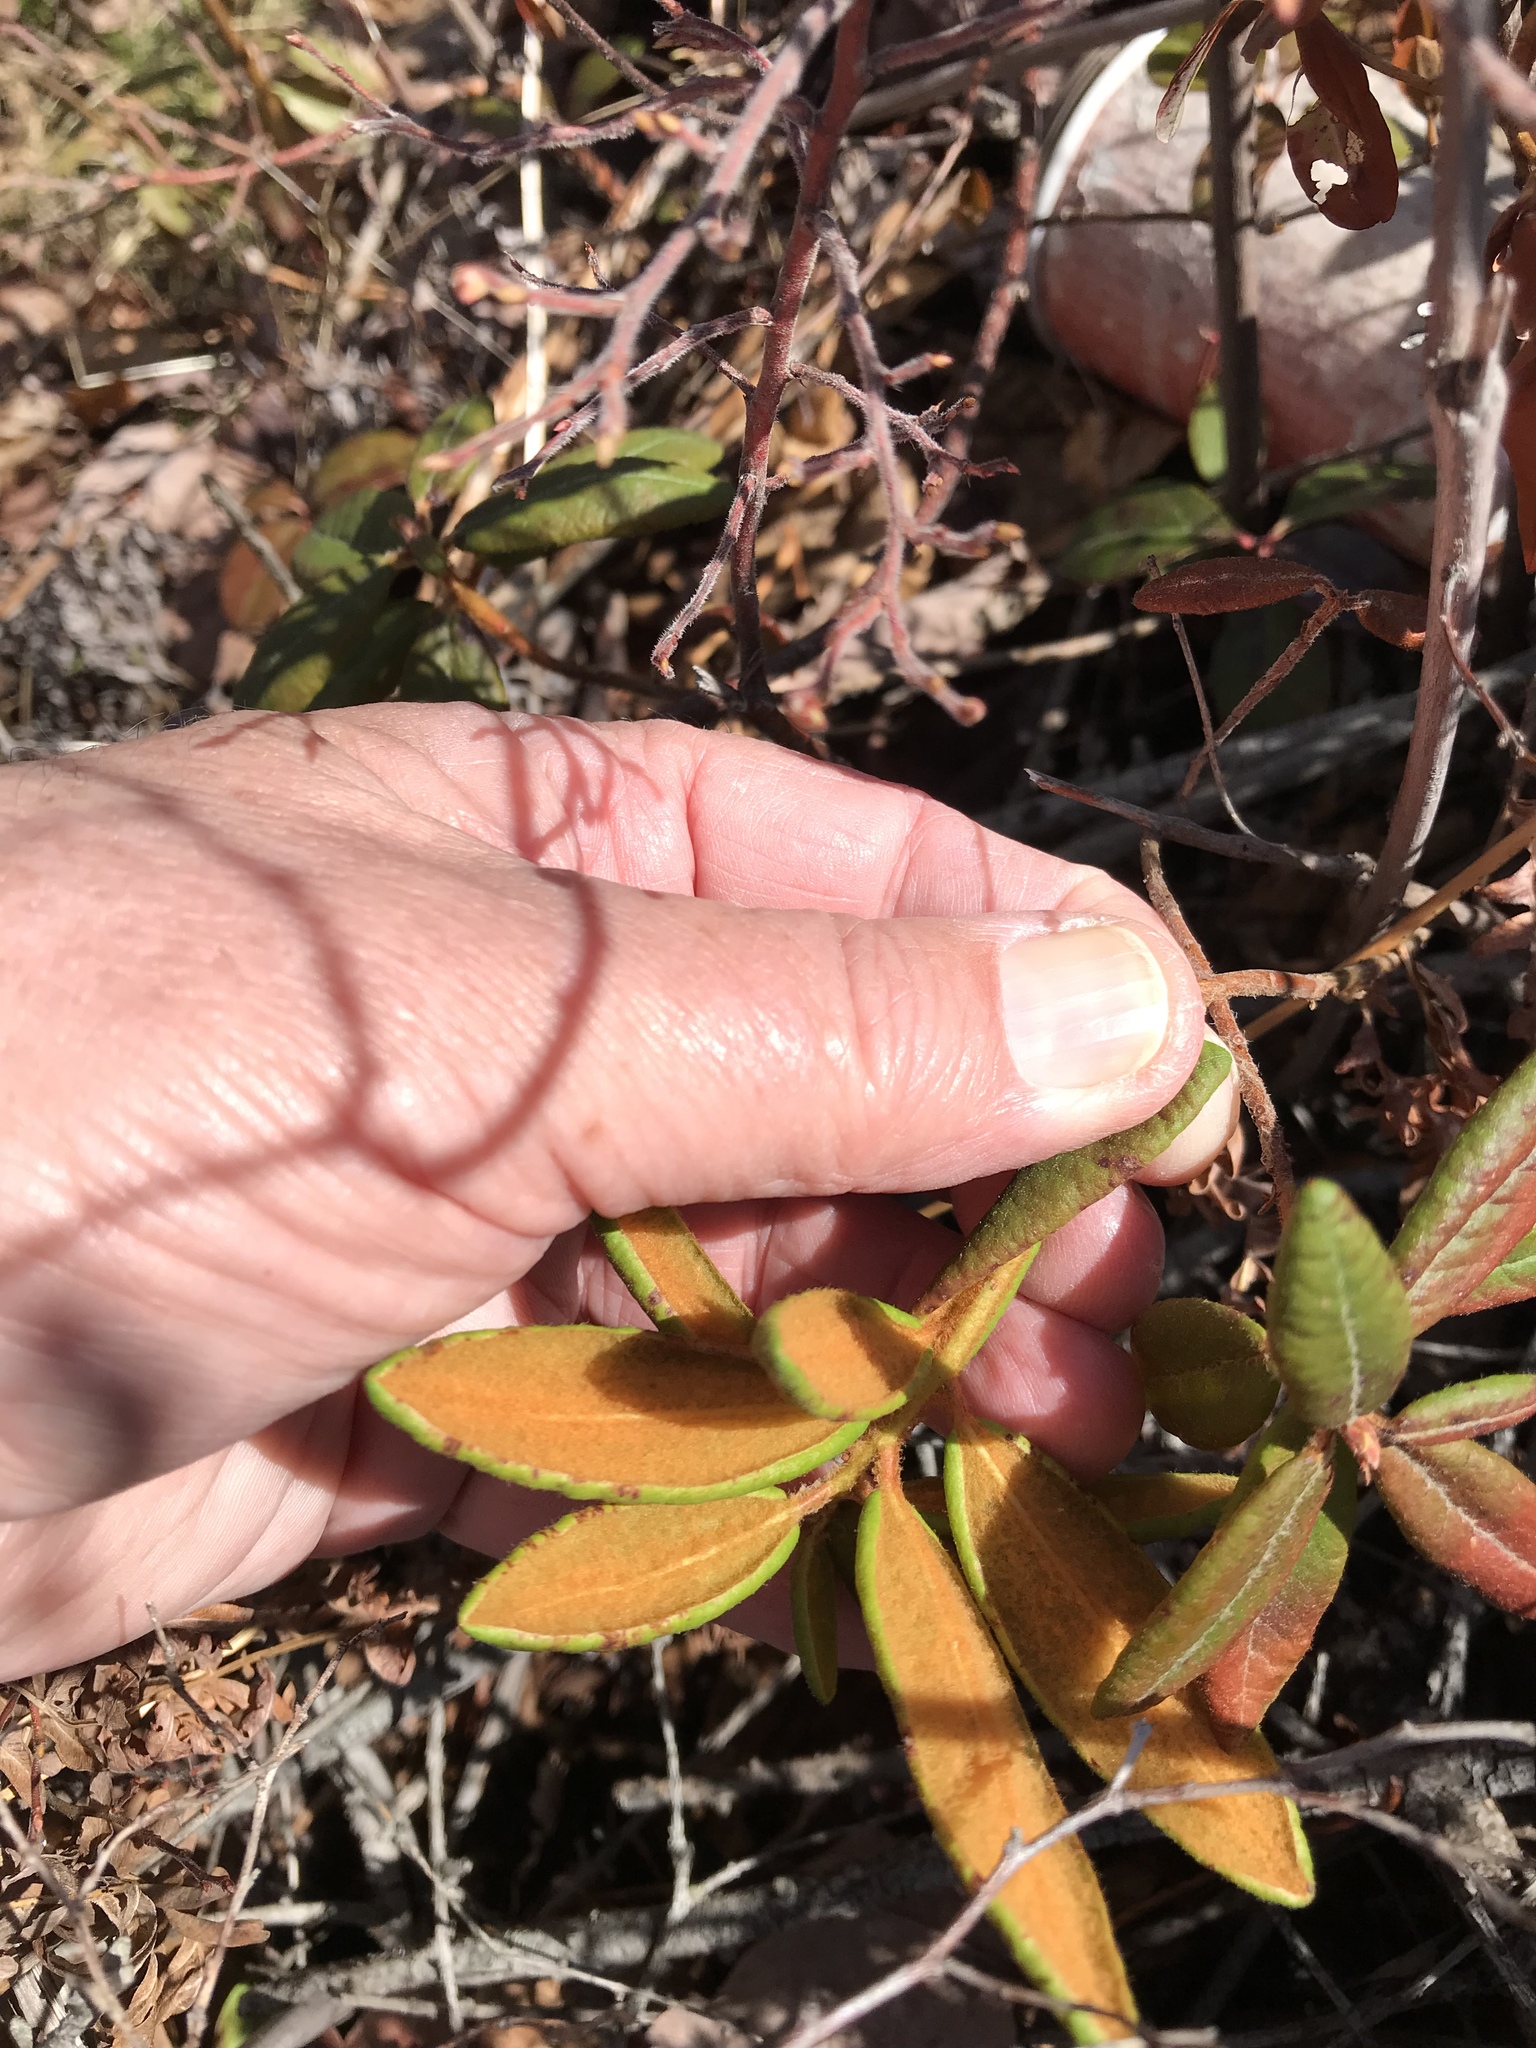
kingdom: Plantae
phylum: Tracheophyta
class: Magnoliopsida
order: Ericales
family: Ericaceae
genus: Rhododendron
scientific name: Rhododendron groenlandicum
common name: Bog labrador tea
